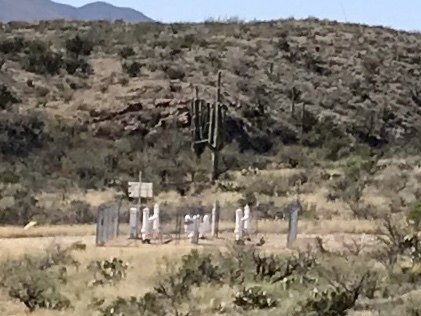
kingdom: Plantae
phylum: Tracheophyta
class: Magnoliopsida
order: Caryophyllales
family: Cactaceae
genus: Carnegiea
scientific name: Carnegiea gigantea
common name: Saguaro
